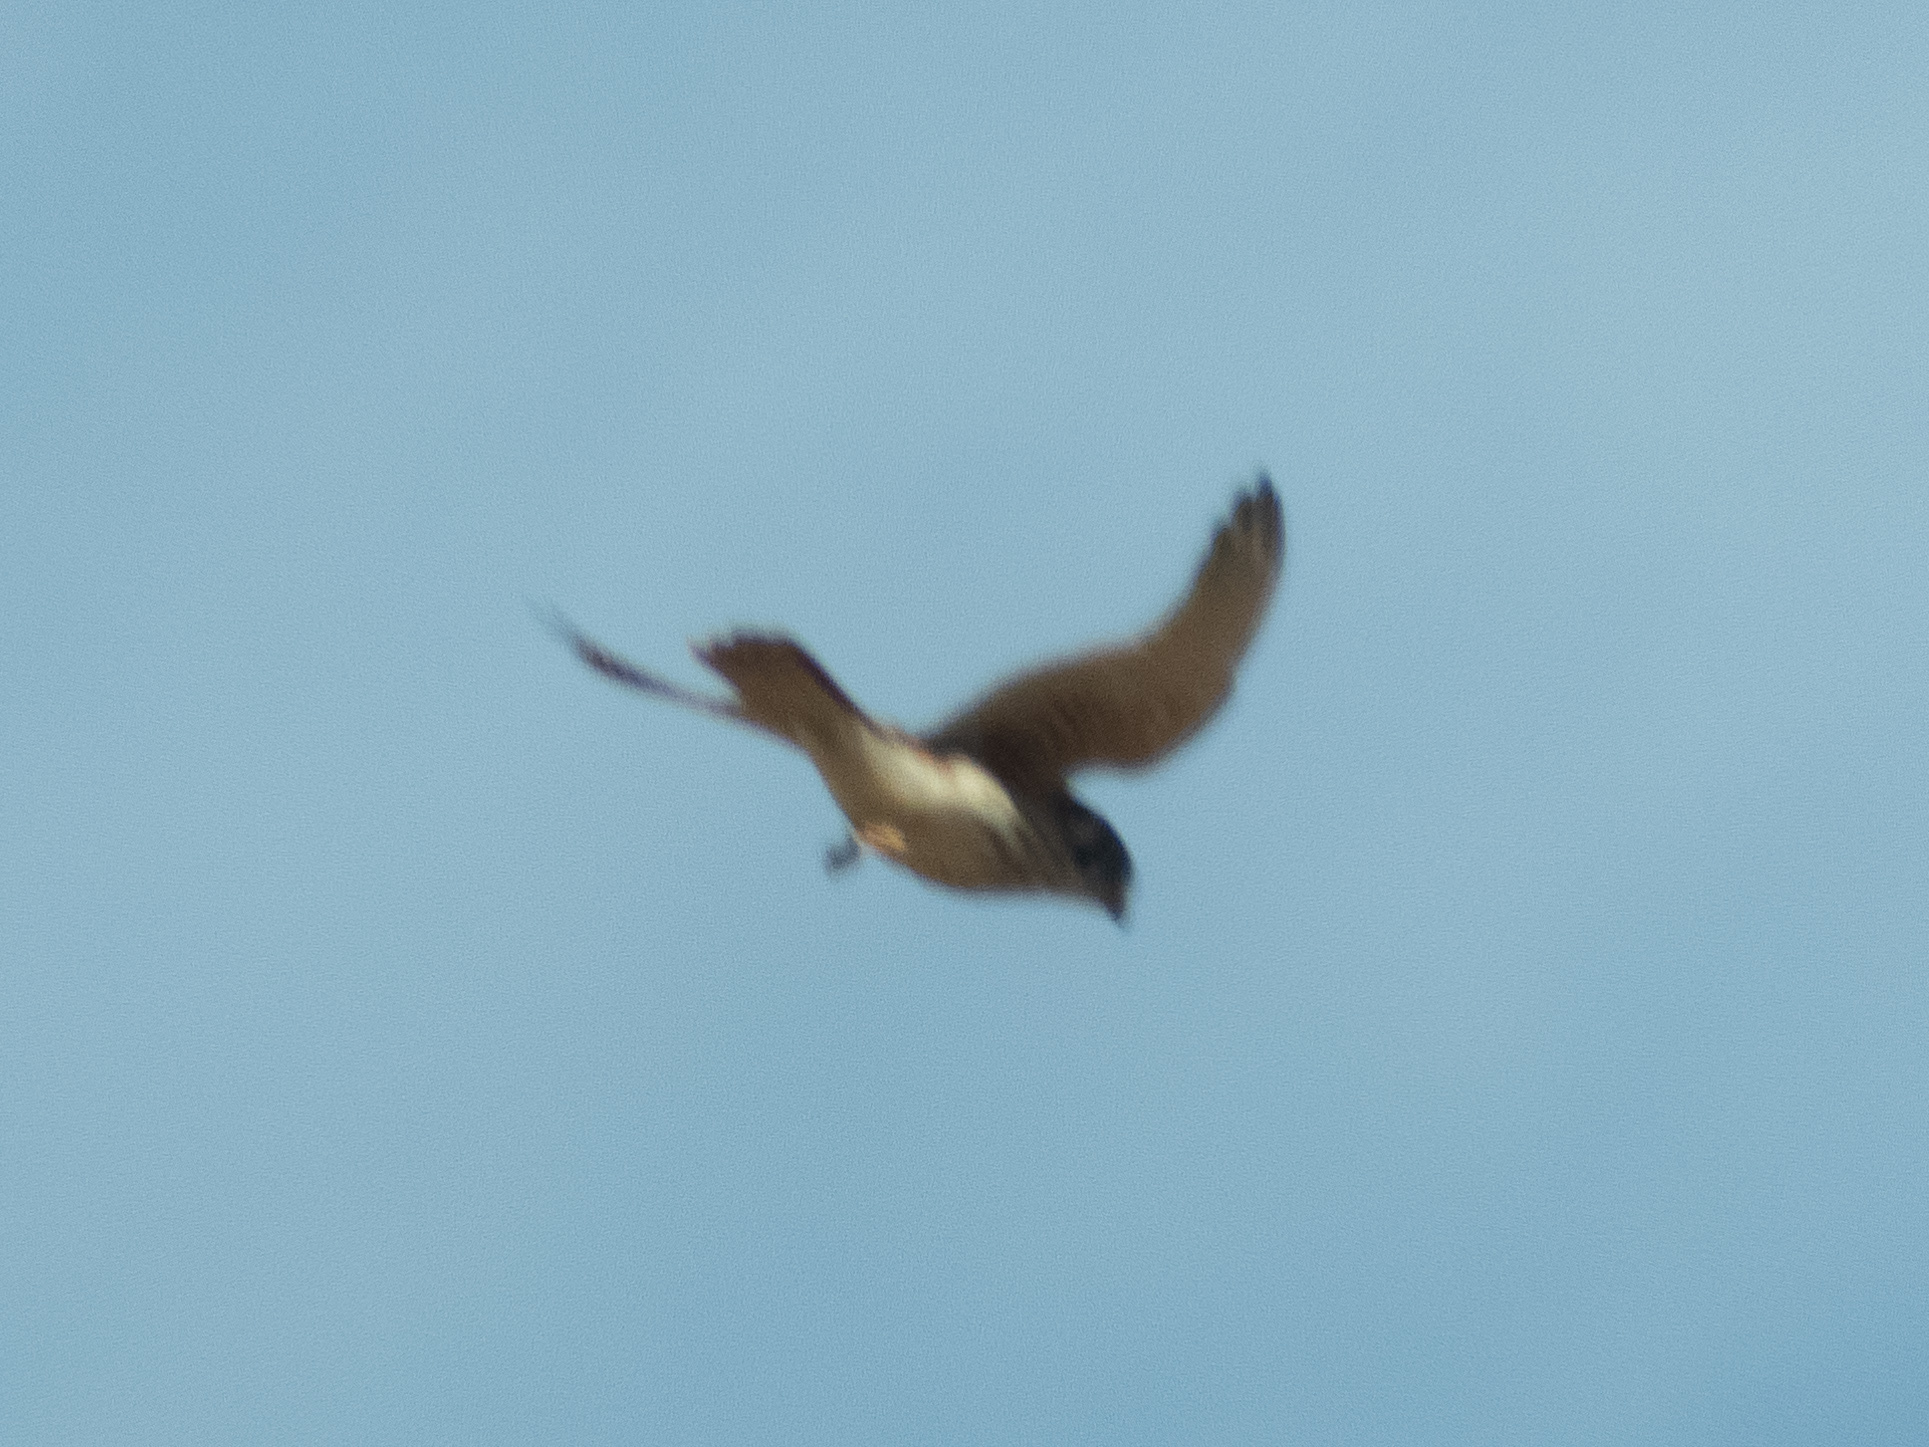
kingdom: Animalia
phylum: Chordata
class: Aves
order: Falconiformes
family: Falconidae
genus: Falco
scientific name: Falco sparverius
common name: American kestrel
